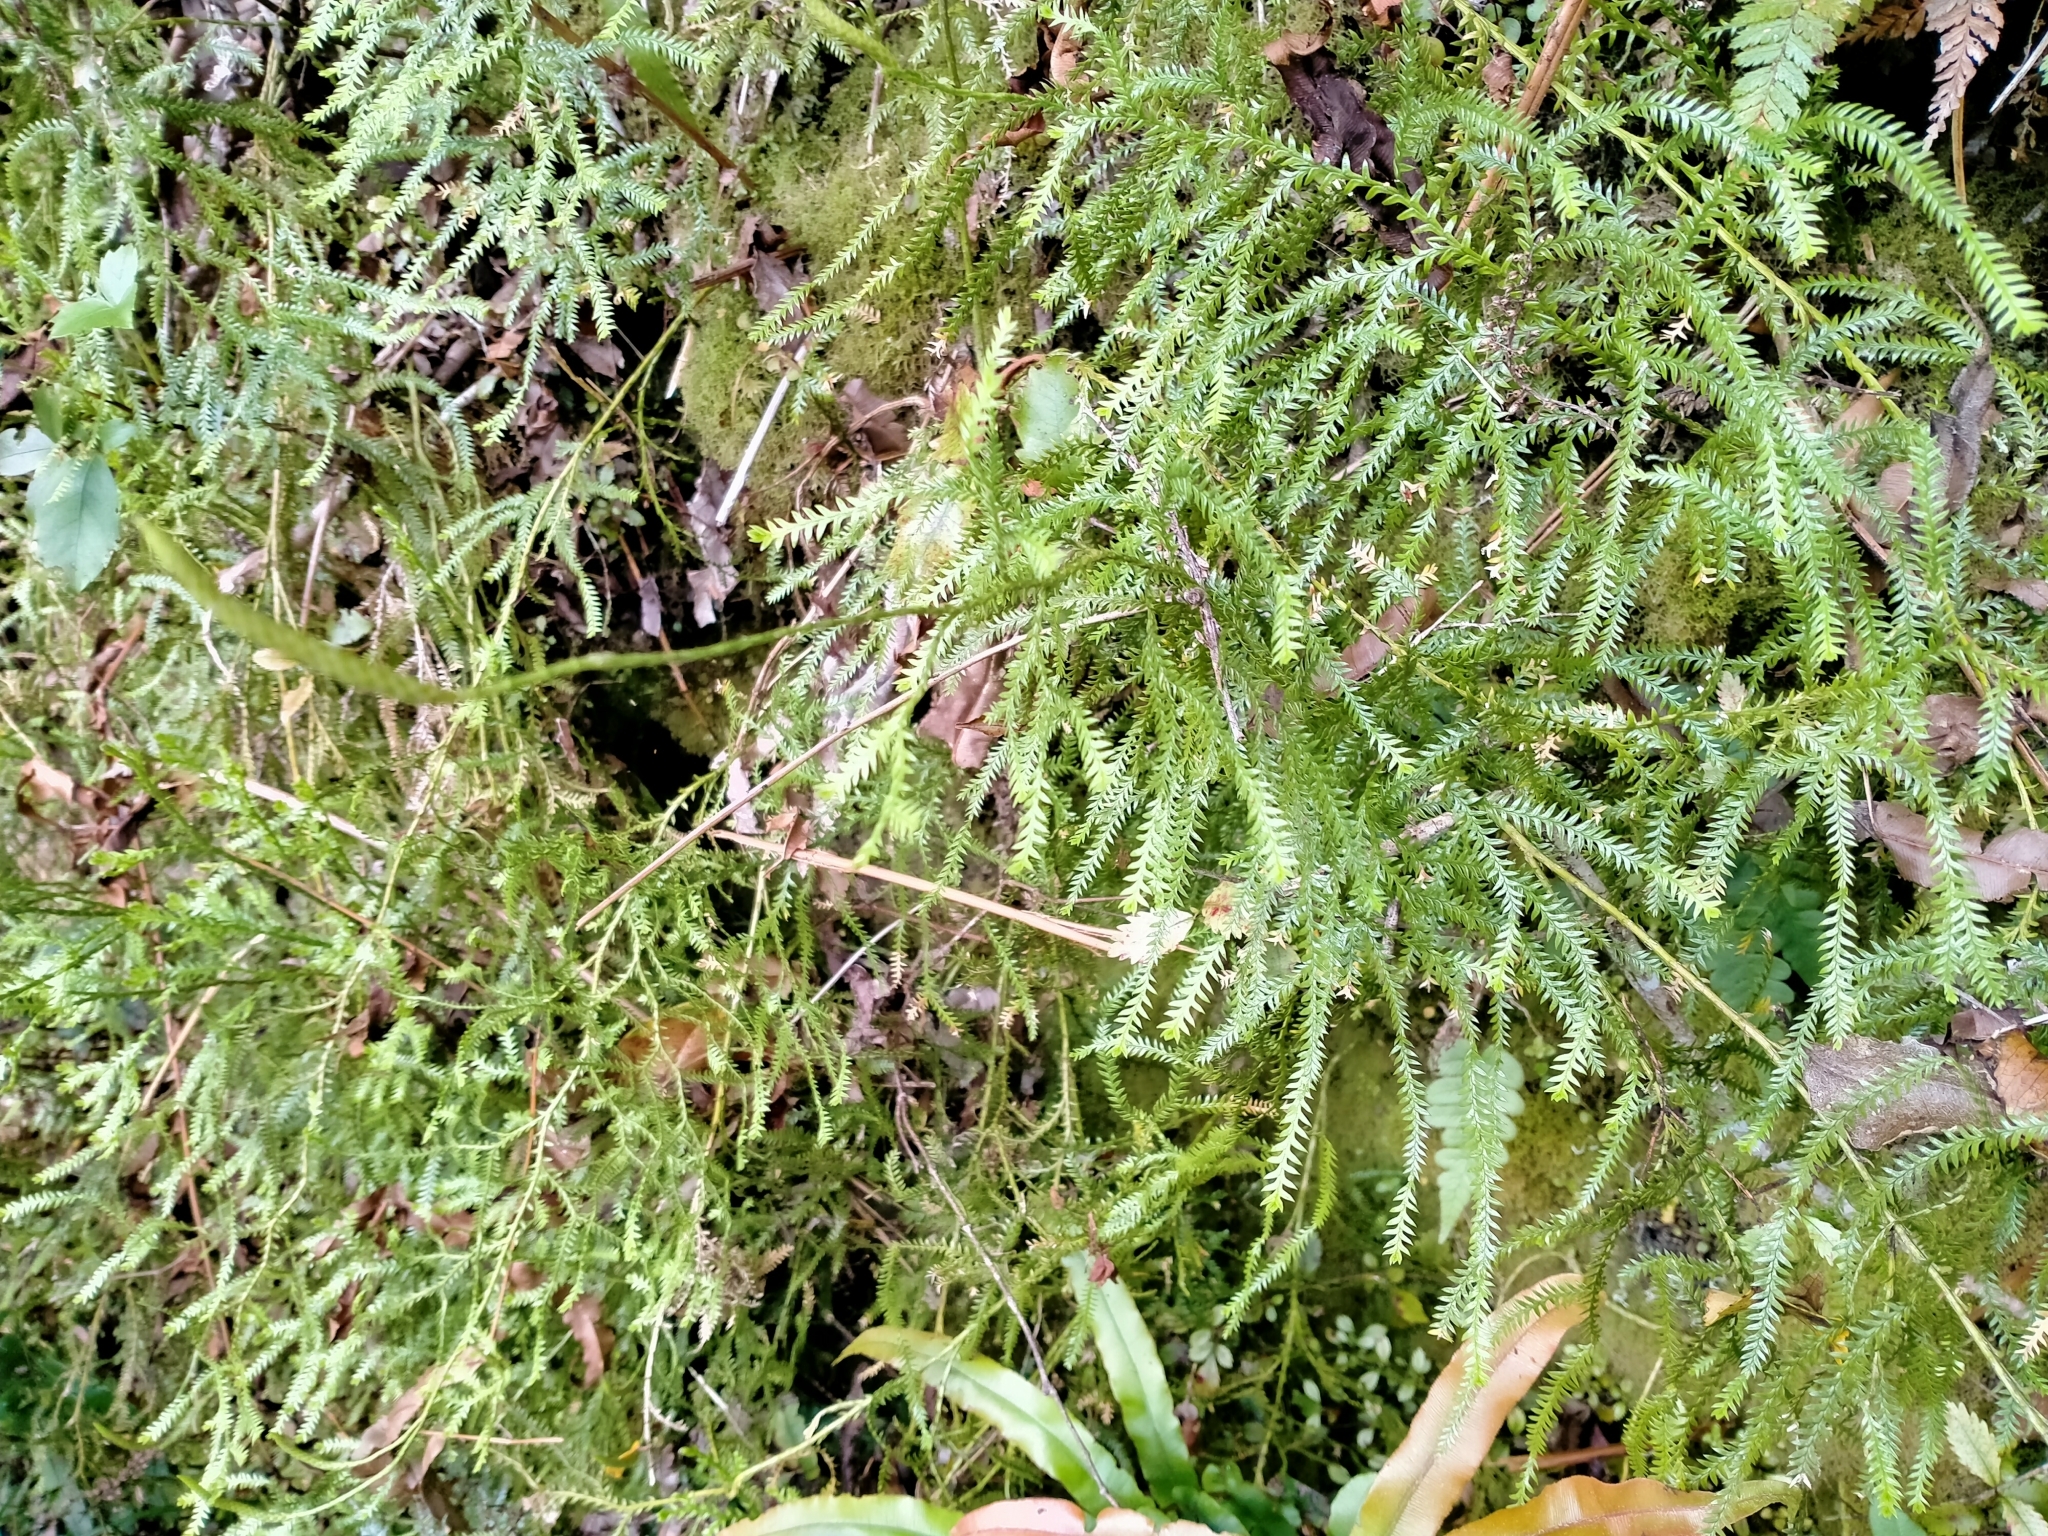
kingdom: Plantae
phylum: Tracheophyta
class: Lycopodiopsida
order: Lycopodiales
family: Lycopodiaceae
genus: Diphasium
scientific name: Diphasium scariosum
